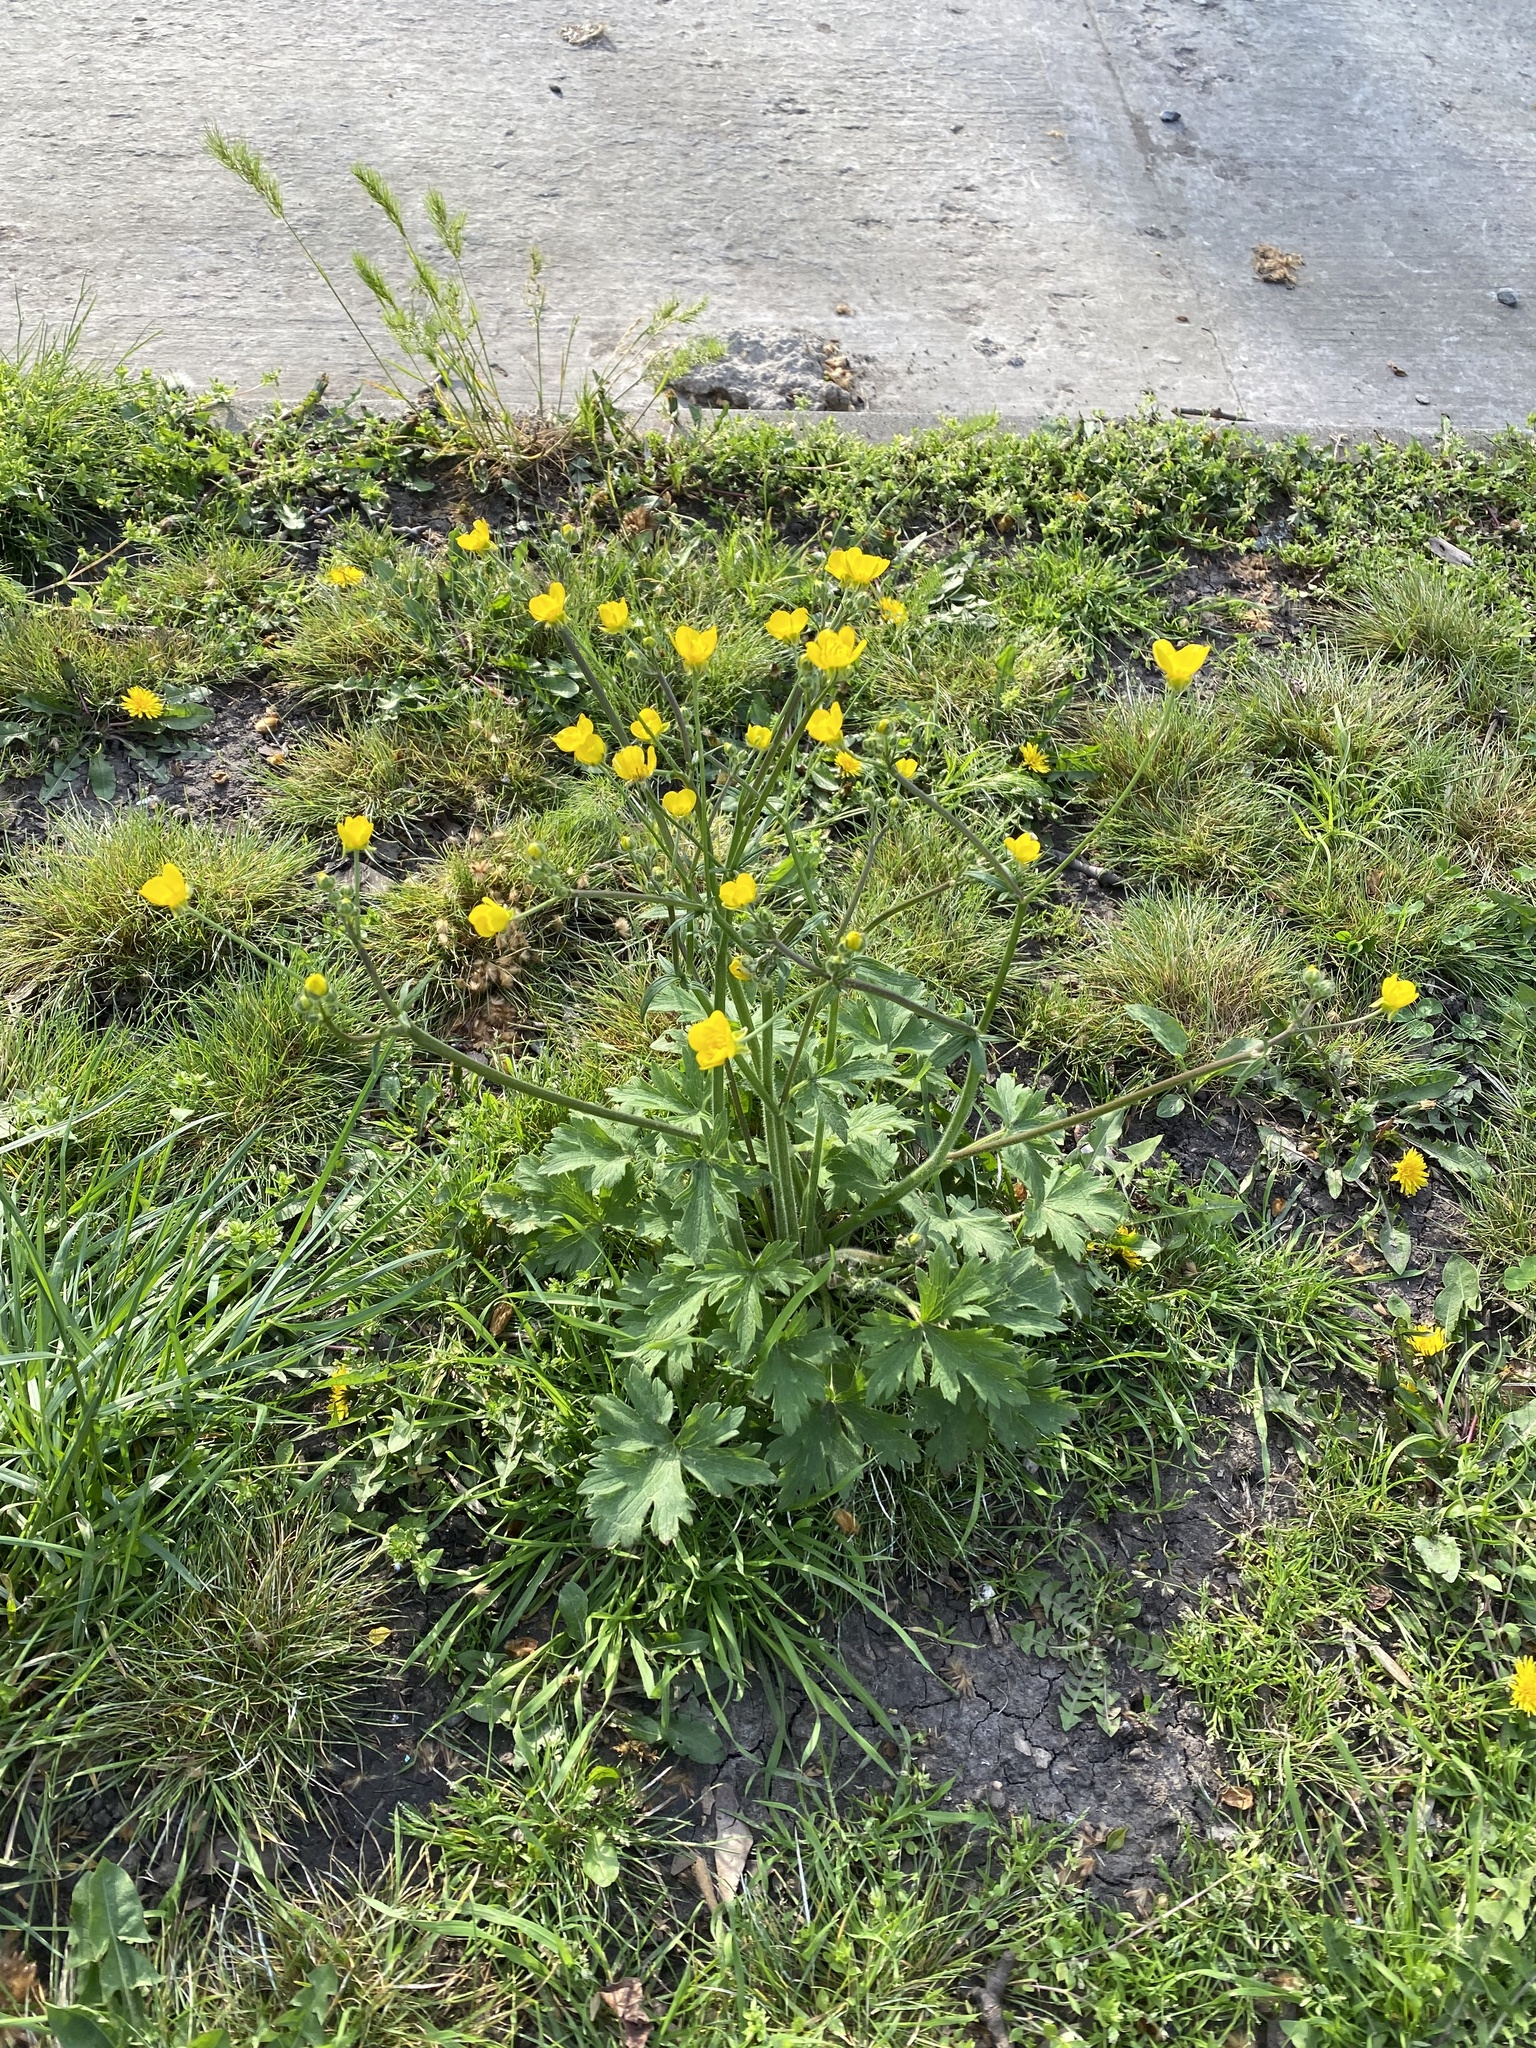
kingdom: Plantae
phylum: Tracheophyta
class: Magnoliopsida
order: Ranunculales
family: Ranunculaceae
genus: Ranunculus
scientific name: Ranunculus constantinopolitanus
